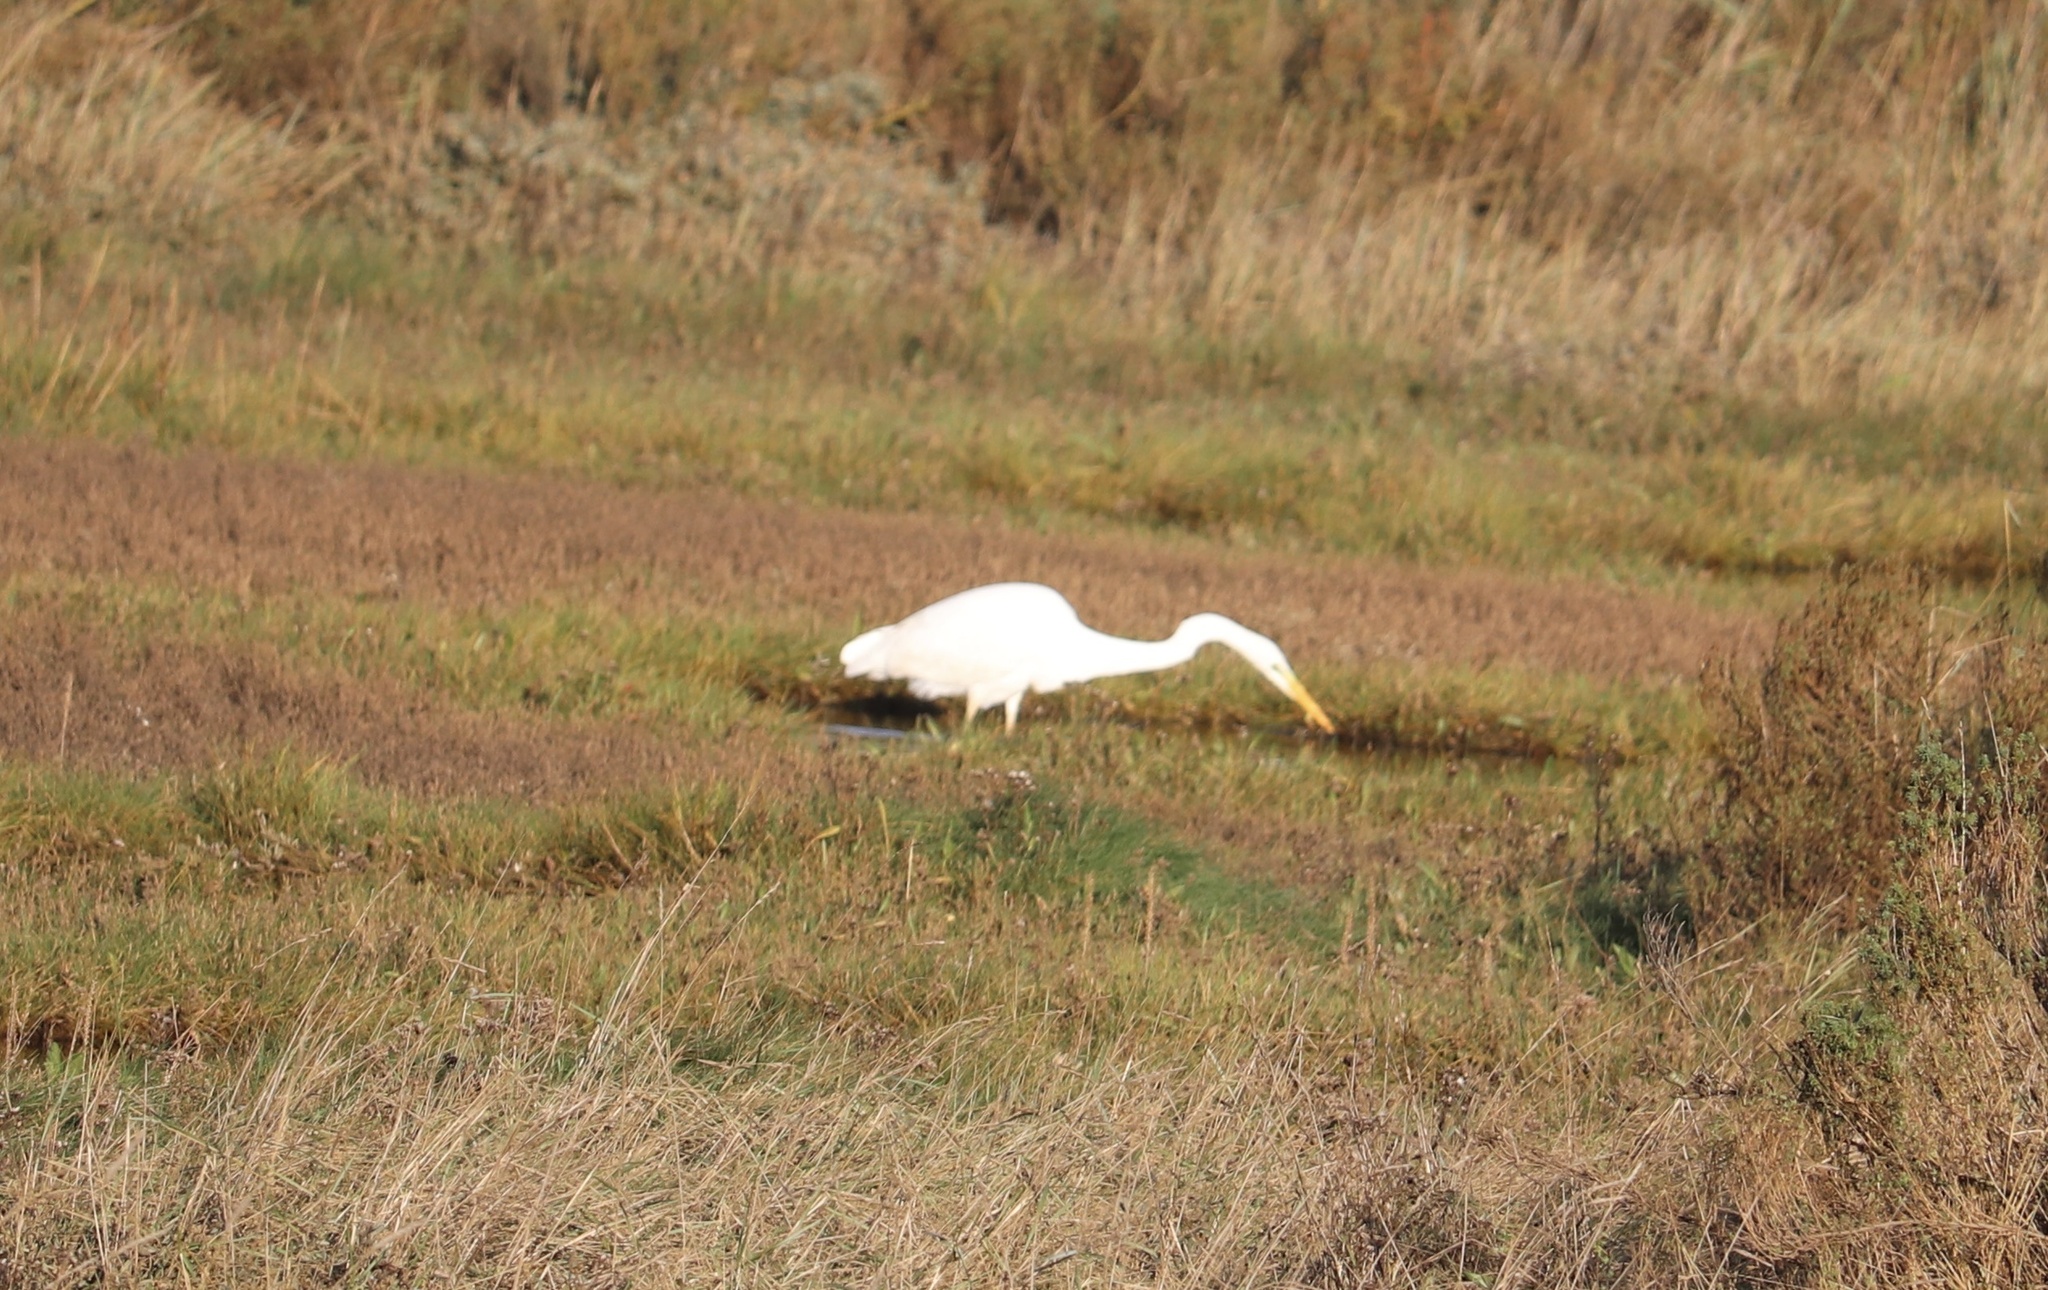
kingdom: Animalia
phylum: Chordata
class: Aves
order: Pelecaniformes
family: Ardeidae
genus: Ardea
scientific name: Ardea alba
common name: Great egret
